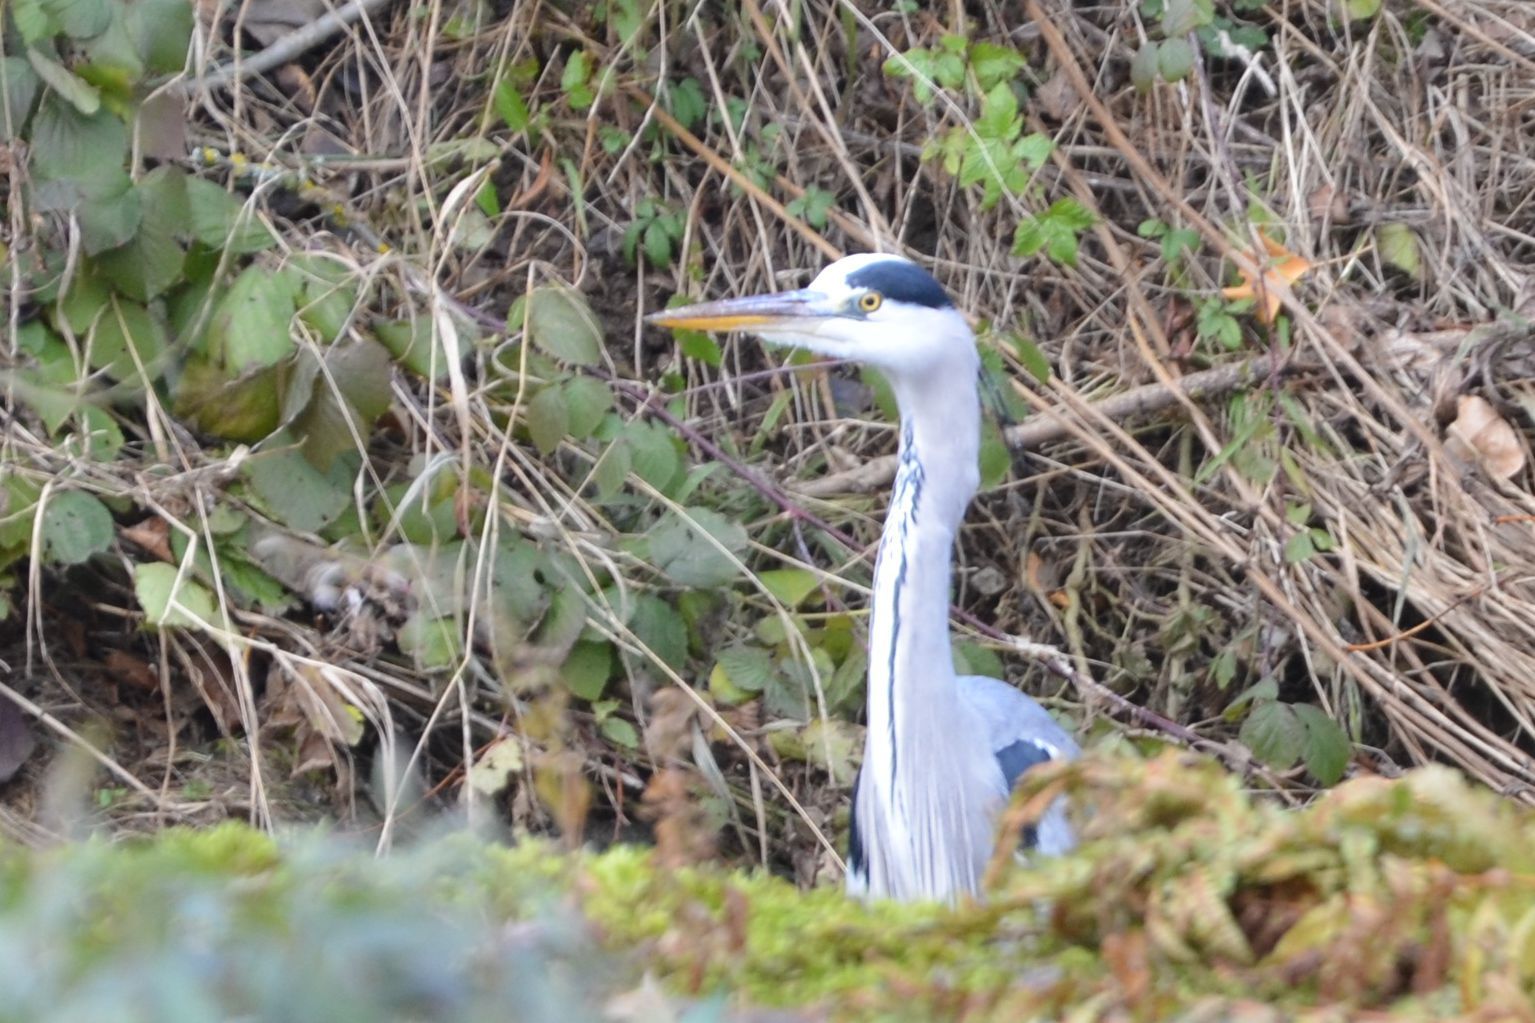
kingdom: Animalia
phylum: Chordata
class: Aves
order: Pelecaniformes
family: Ardeidae
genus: Ardea
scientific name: Ardea cinerea
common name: Grey heron
